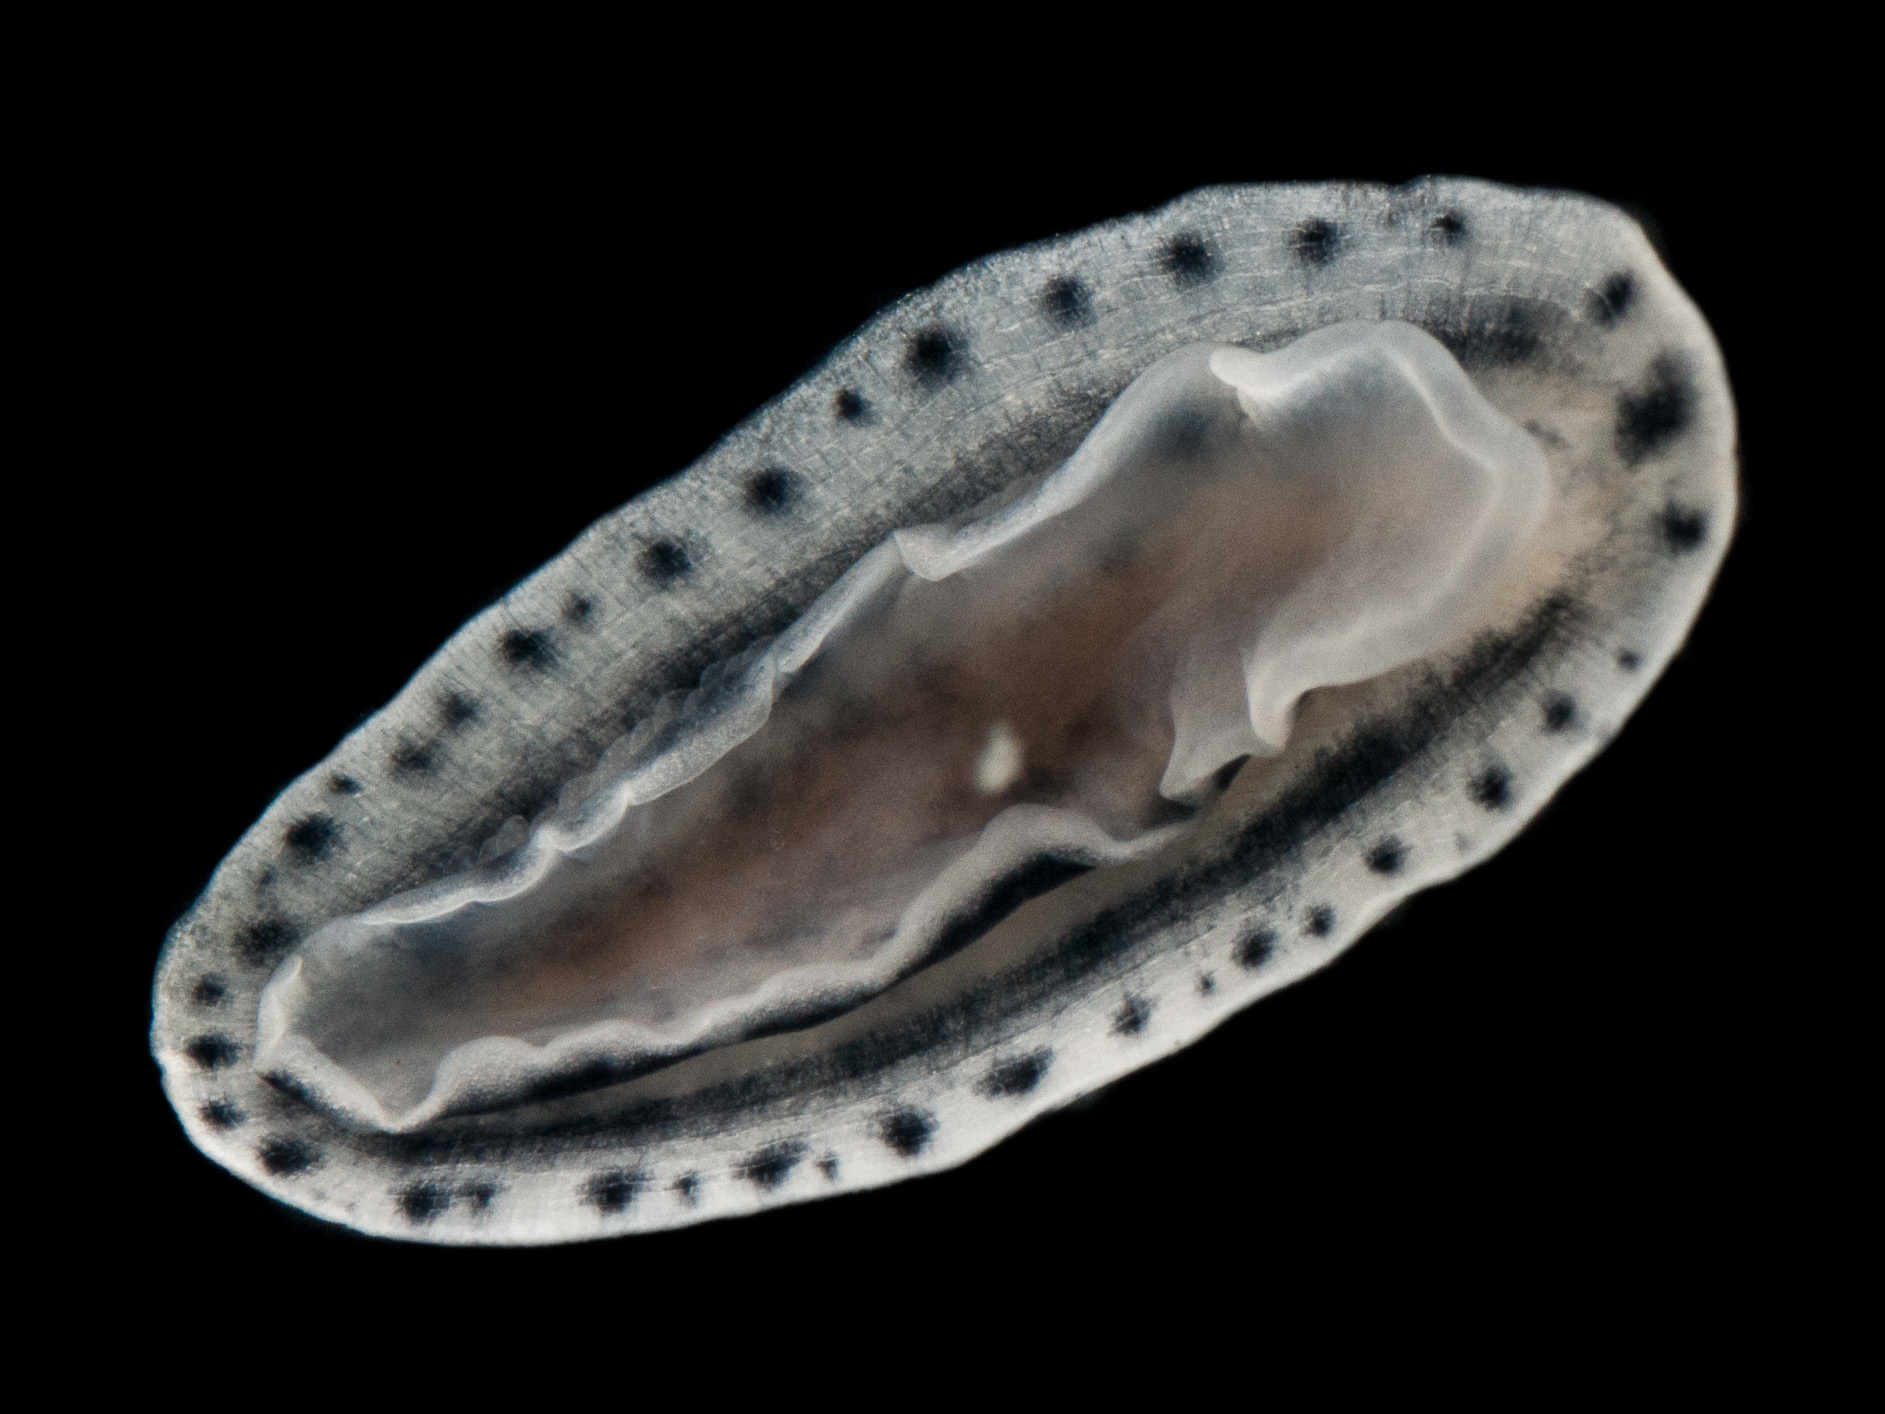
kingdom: Animalia
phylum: Mollusca
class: Gastropoda
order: Nudibranchia
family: Phyllidiidae
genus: Phyllidiopsis
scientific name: Phyllidiopsis xishaensis
